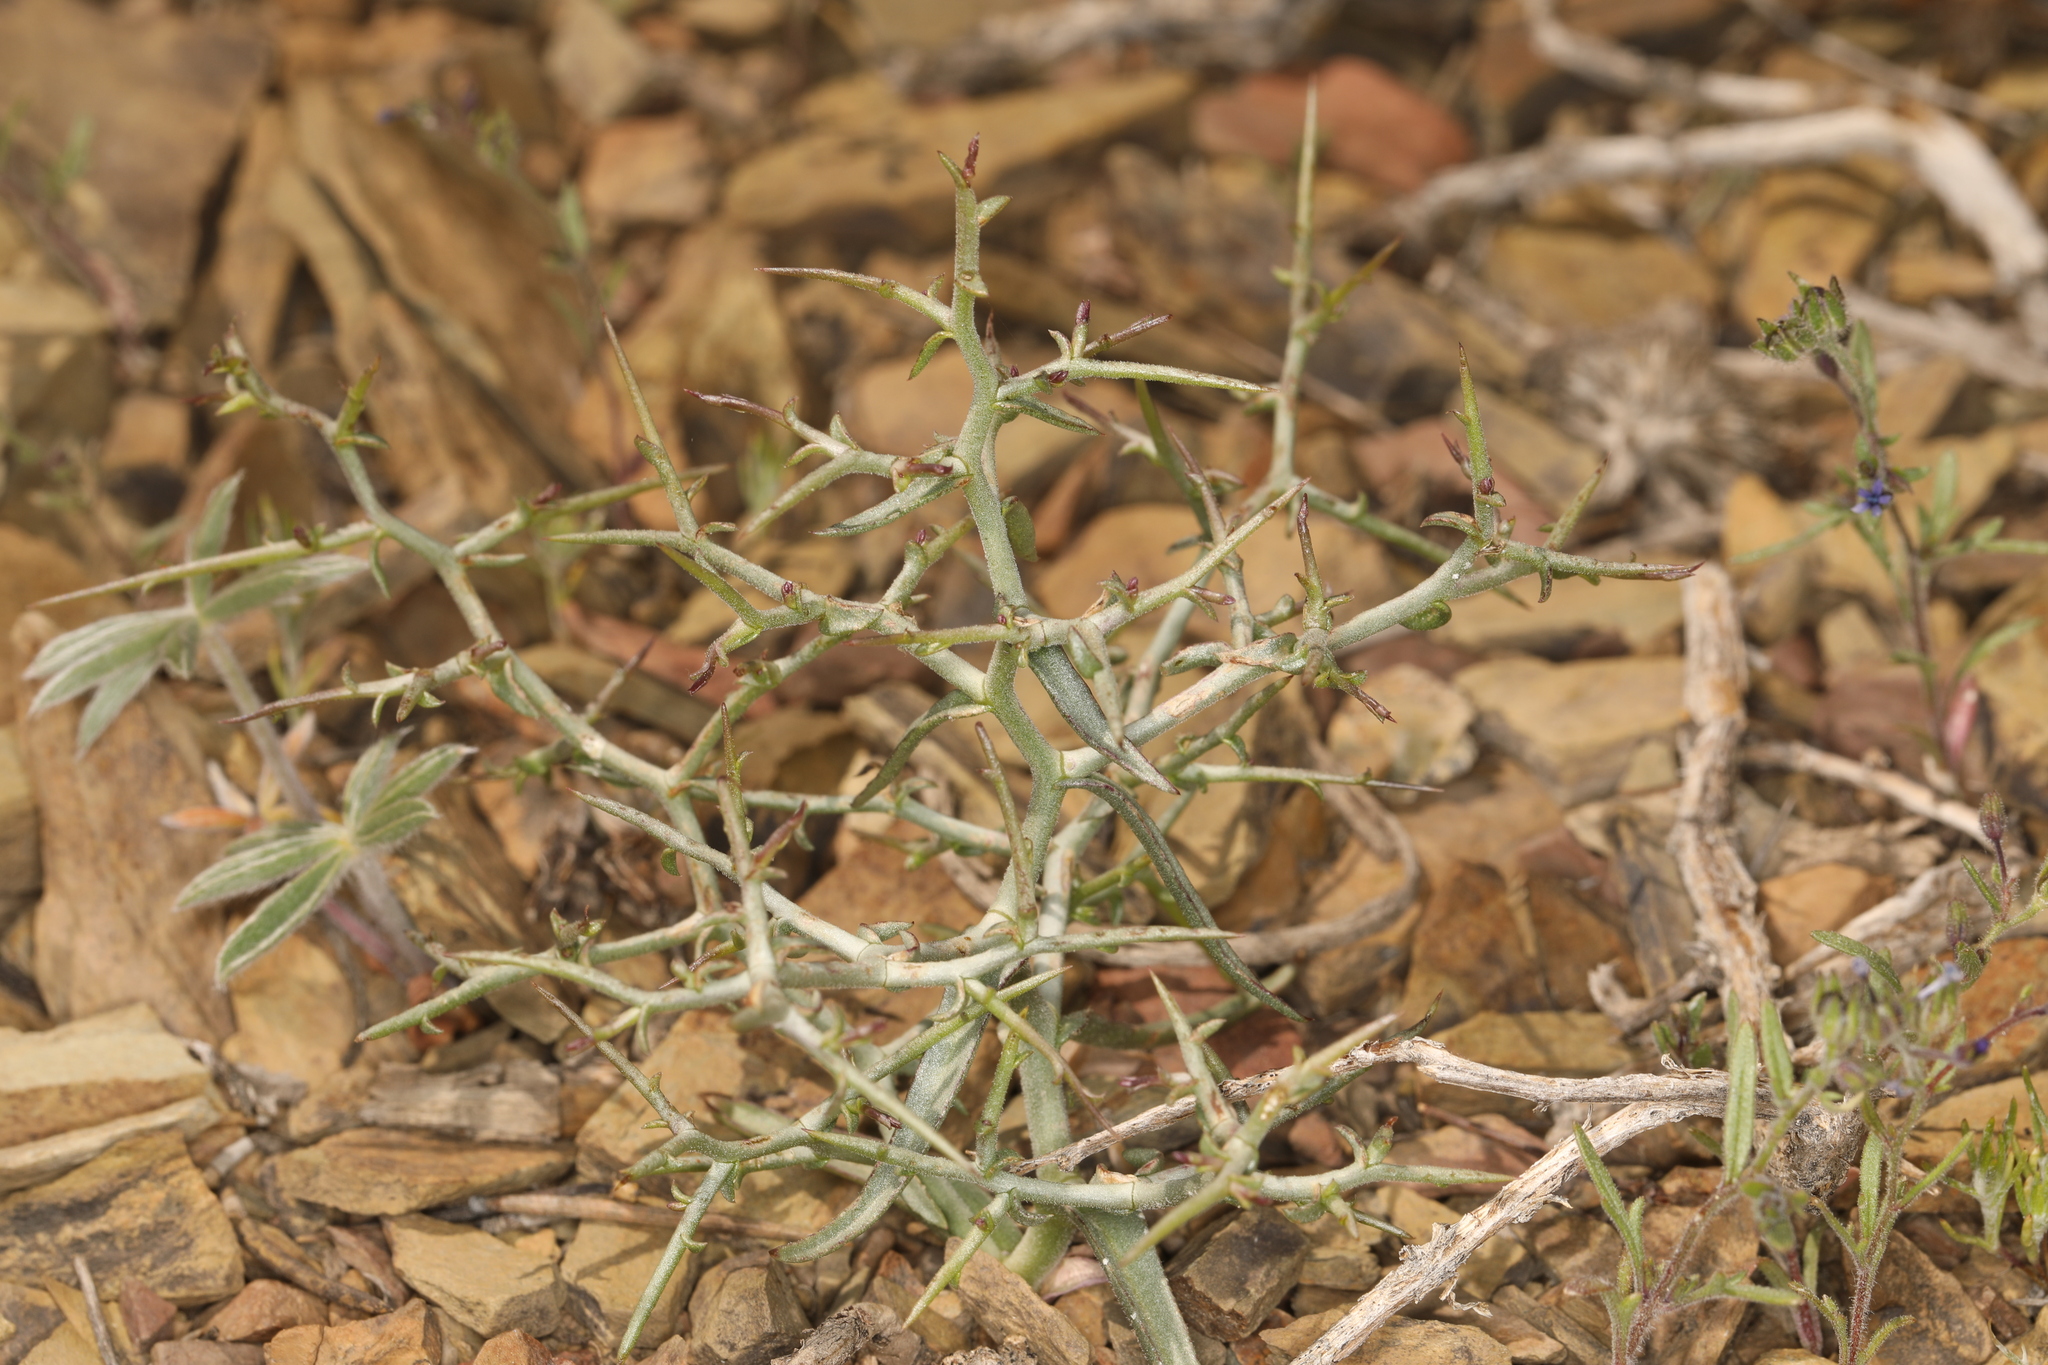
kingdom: Plantae
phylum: Tracheophyta
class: Magnoliopsida
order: Asterales
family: Asteraceae
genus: Pleiacanthus
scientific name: Pleiacanthus spinosus
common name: Thorny skeleton-weed
